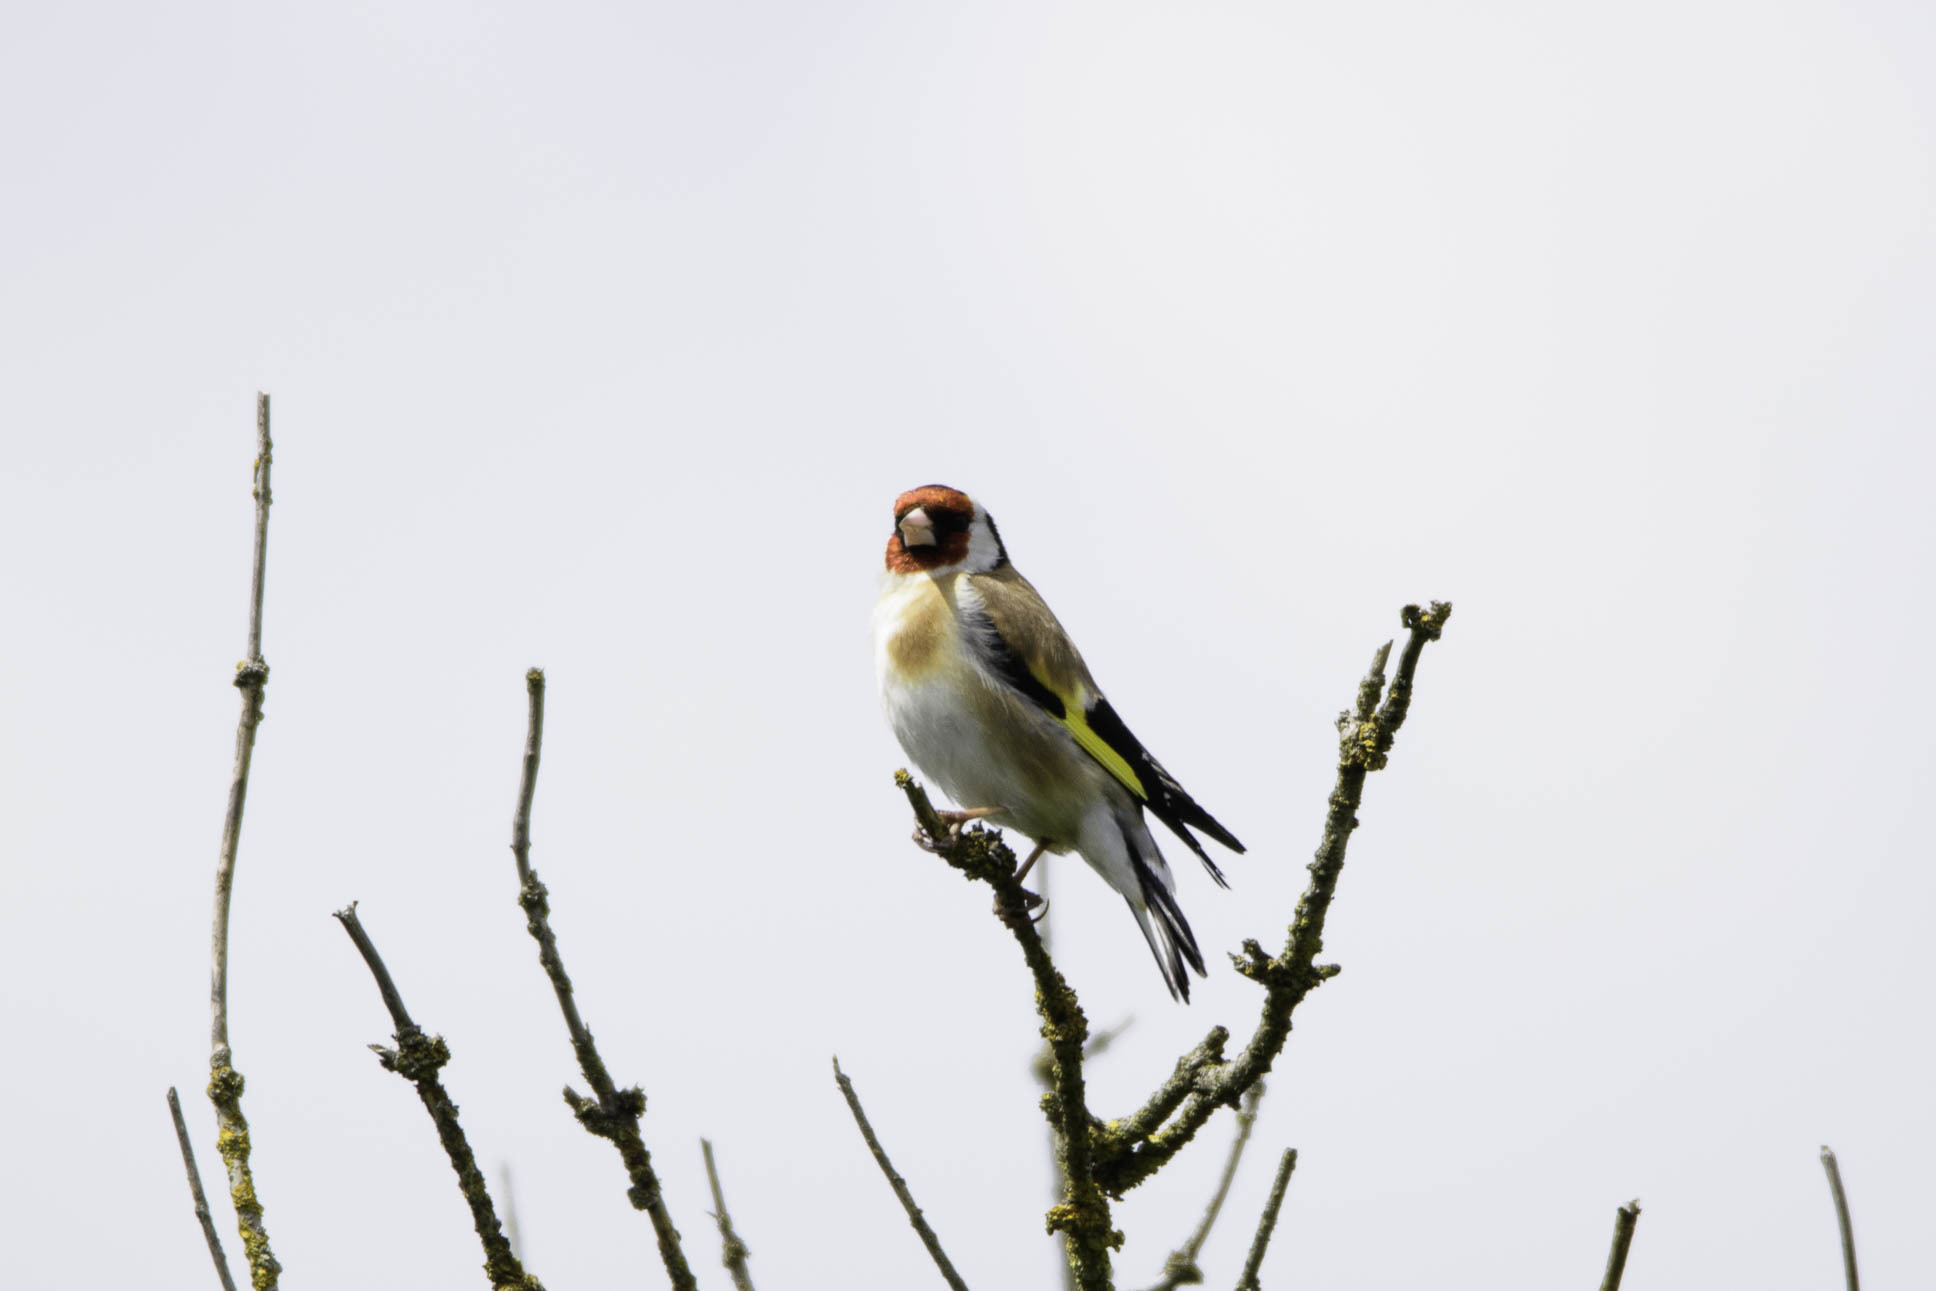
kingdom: Animalia
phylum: Chordata
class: Aves
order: Passeriformes
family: Fringillidae
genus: Carduelis
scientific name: Carduelis carduelis
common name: European goldfinch
